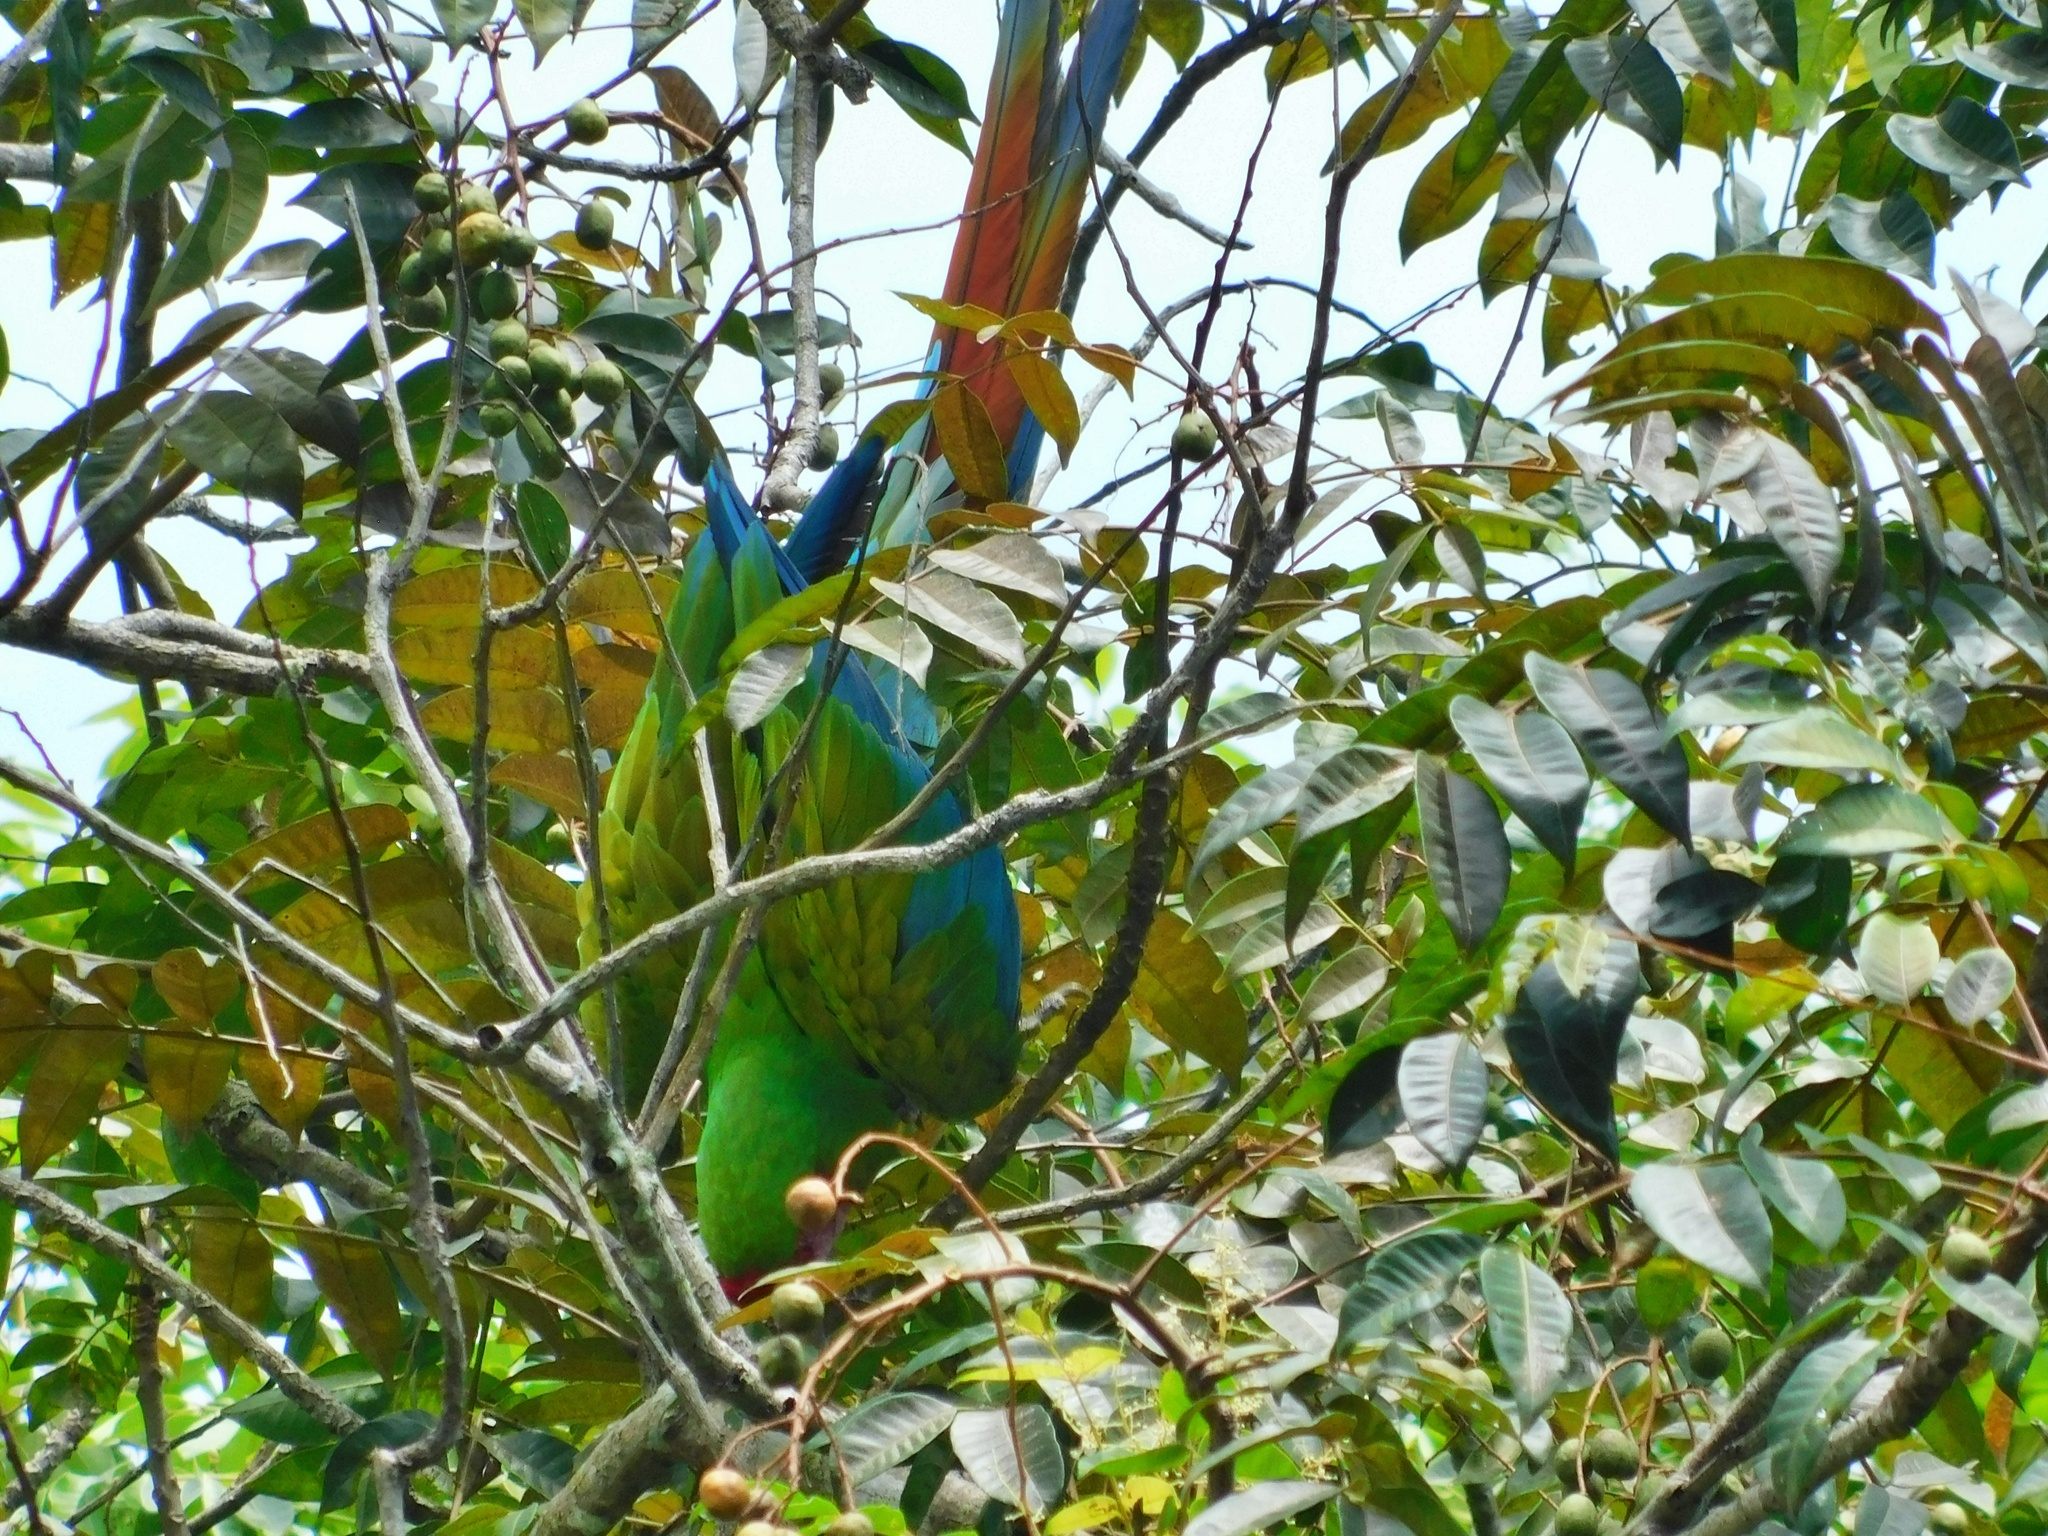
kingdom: Animalia
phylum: Chordata
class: Aves
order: Psittaciformes
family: Psittacidae
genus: Ara
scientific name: Ara ambiguus
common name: Great green macaw
